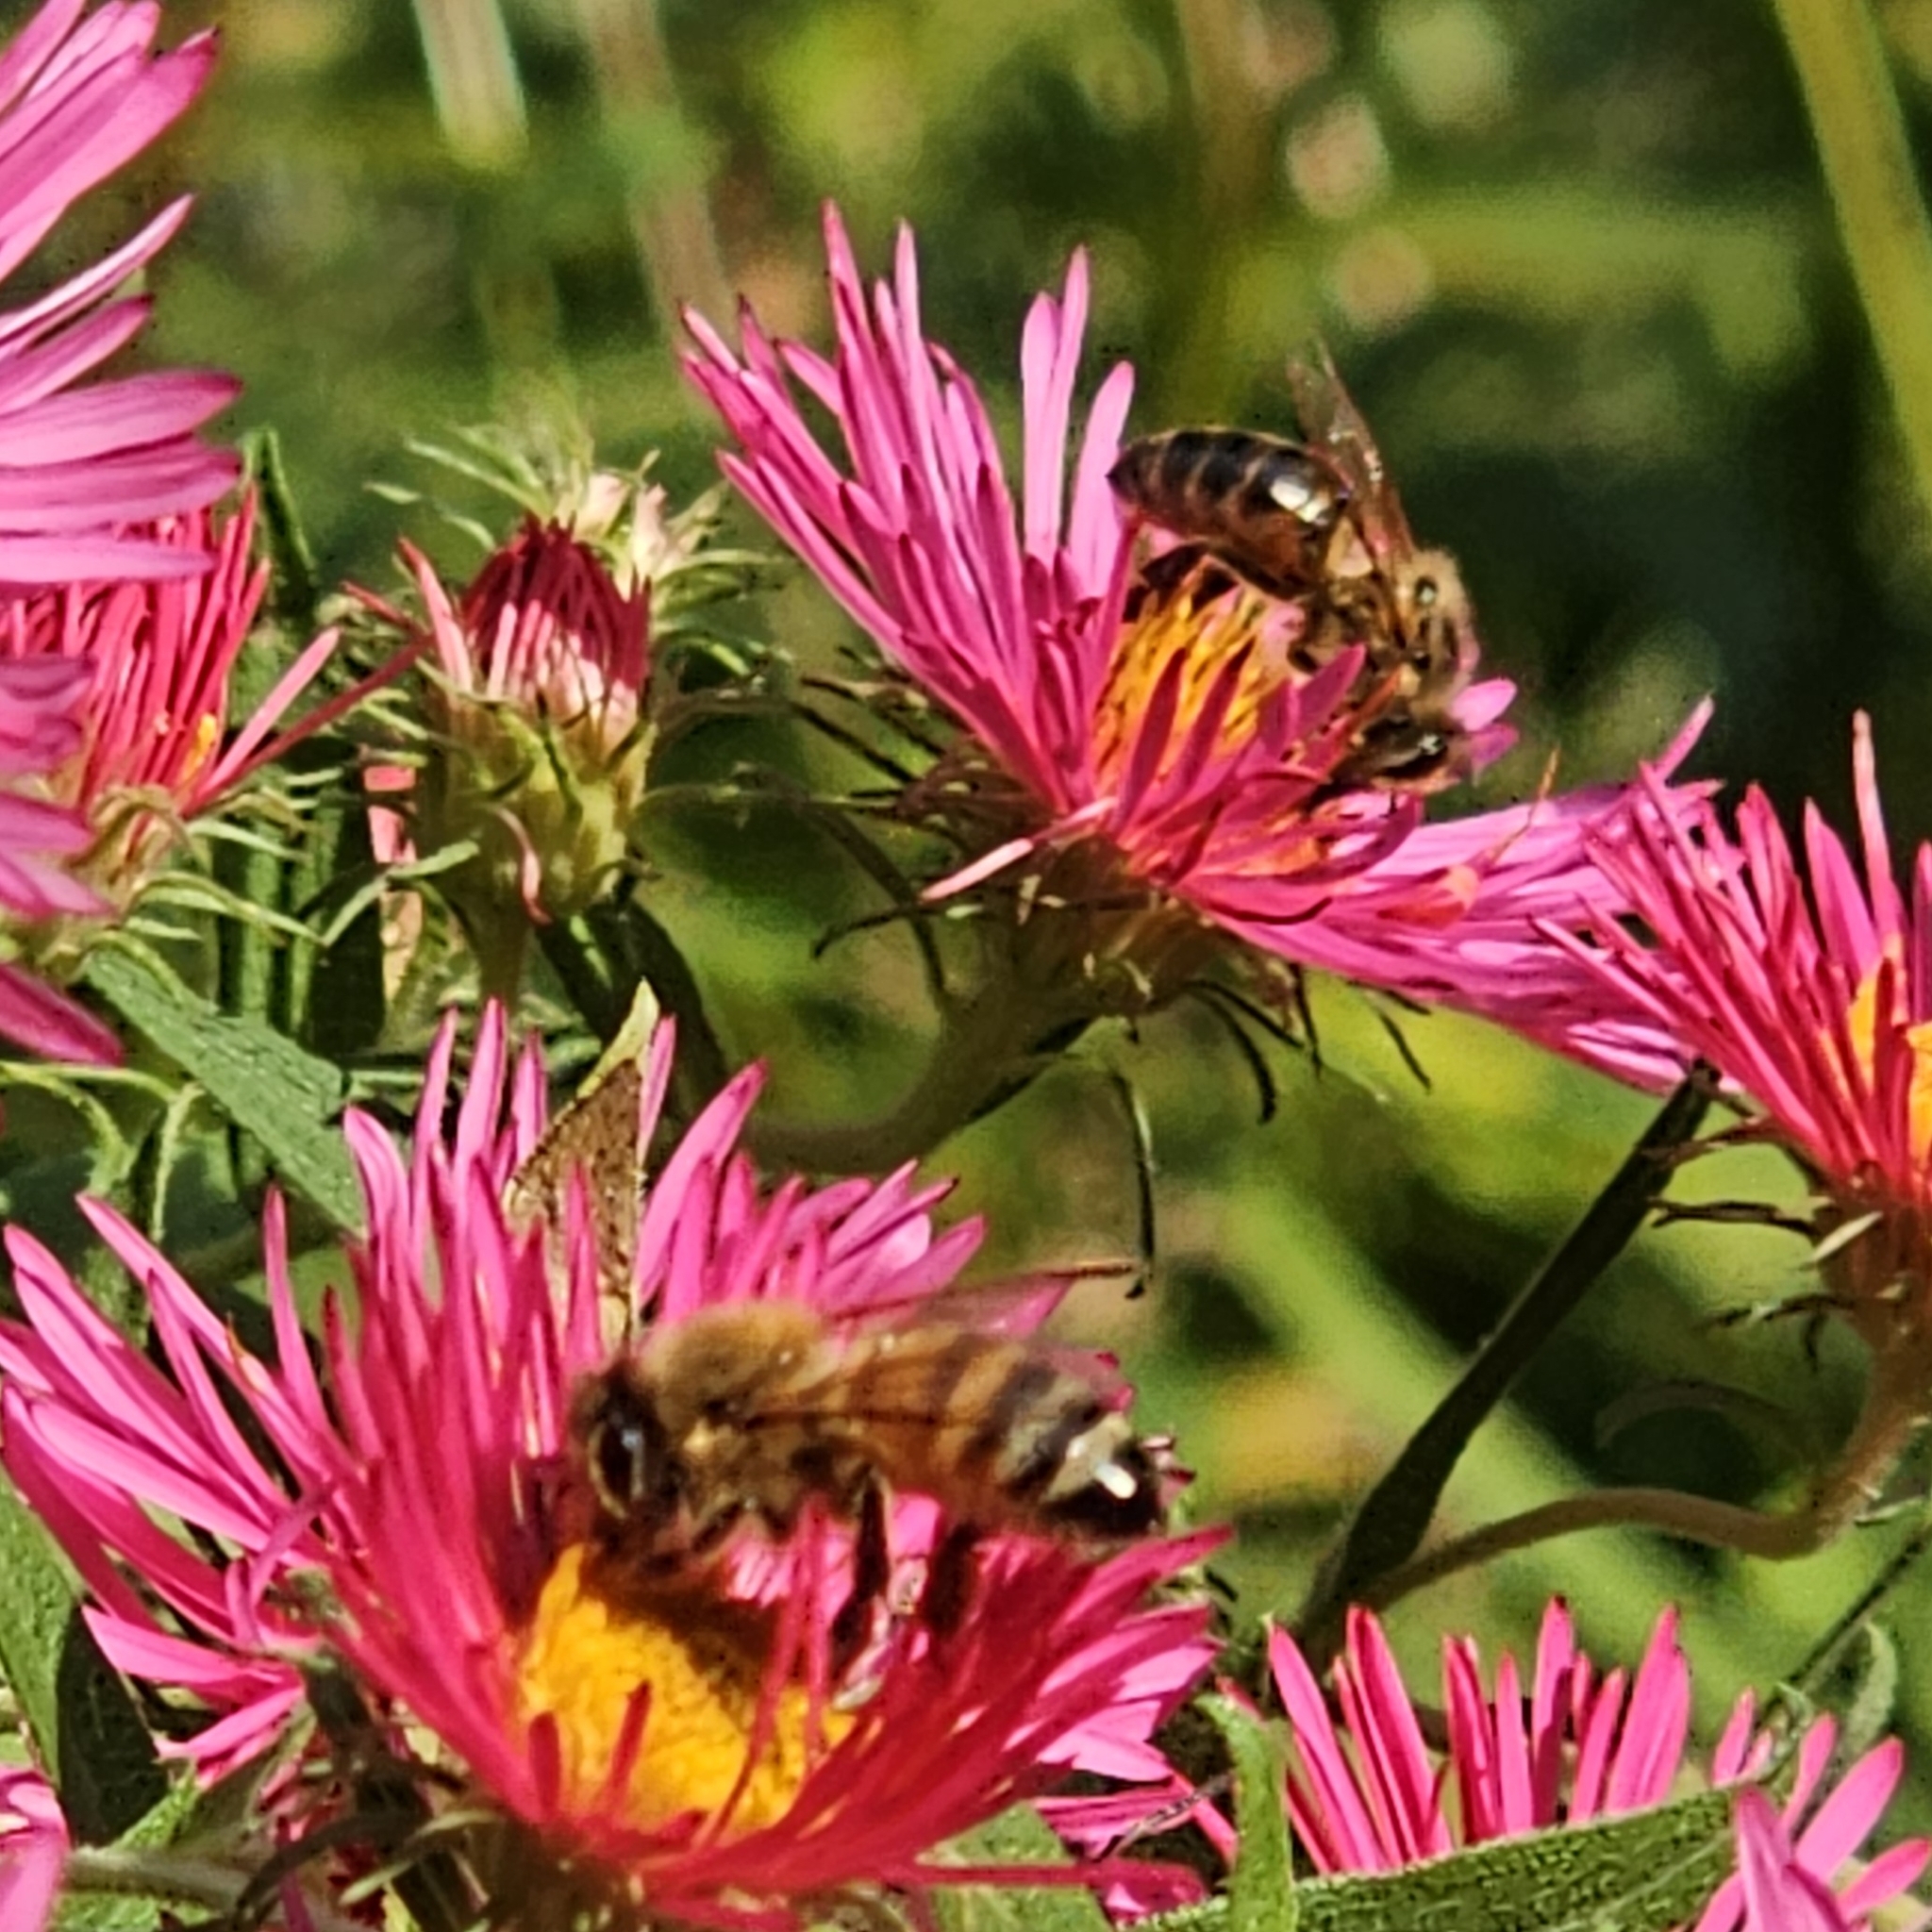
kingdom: Animalia
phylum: Arthropoda
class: Insecta
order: Hymenoptera
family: Apidae
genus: Apis
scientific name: Apis mellifera
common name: Honey bee
